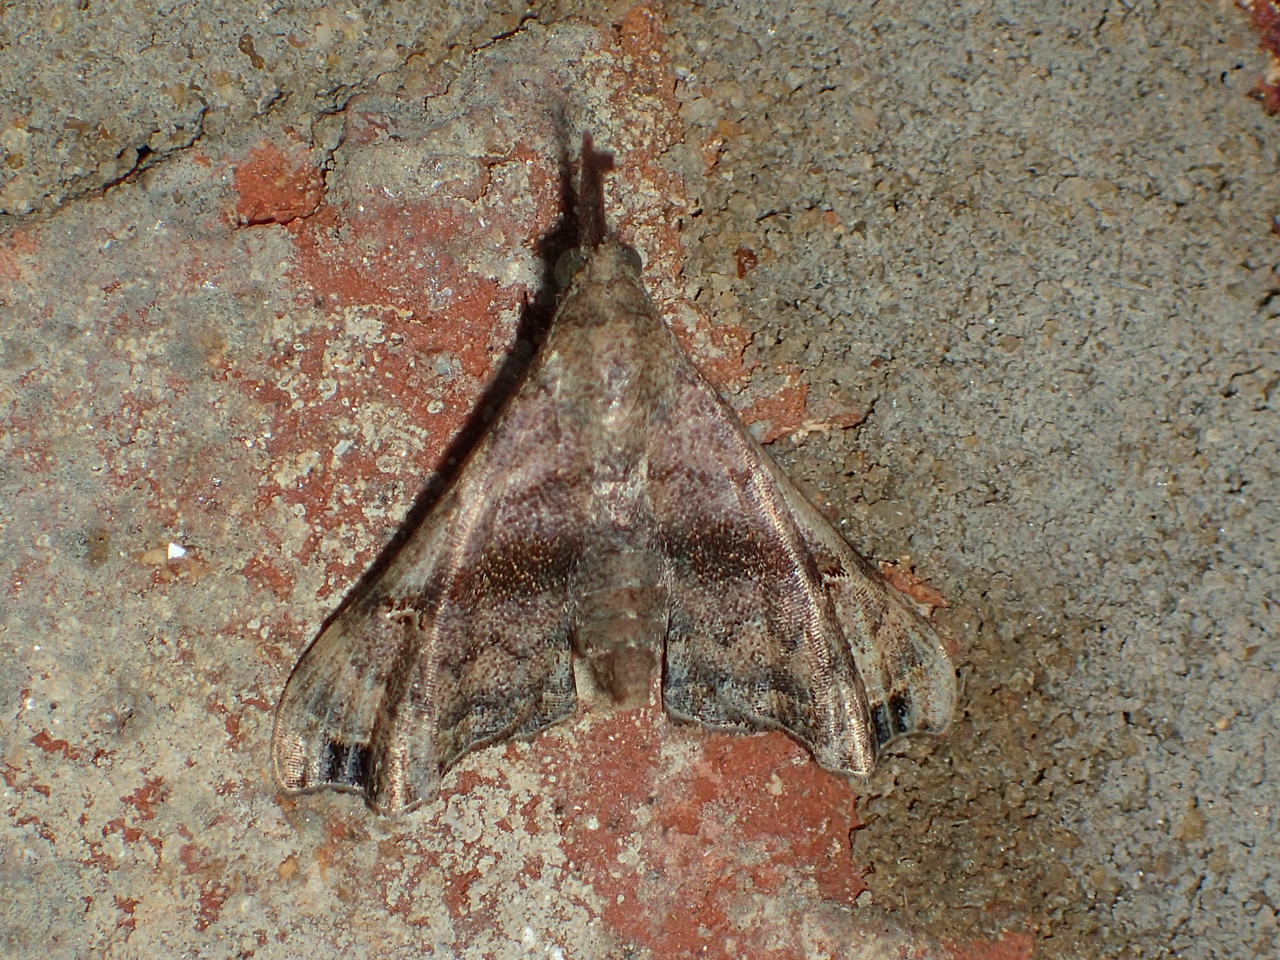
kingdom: Animalia
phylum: Arthropoda
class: Insecta
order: Lepidoptera
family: Erebidae
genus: Palthis
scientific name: Palthis asopialis
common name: Faint-spotted palthis moth
